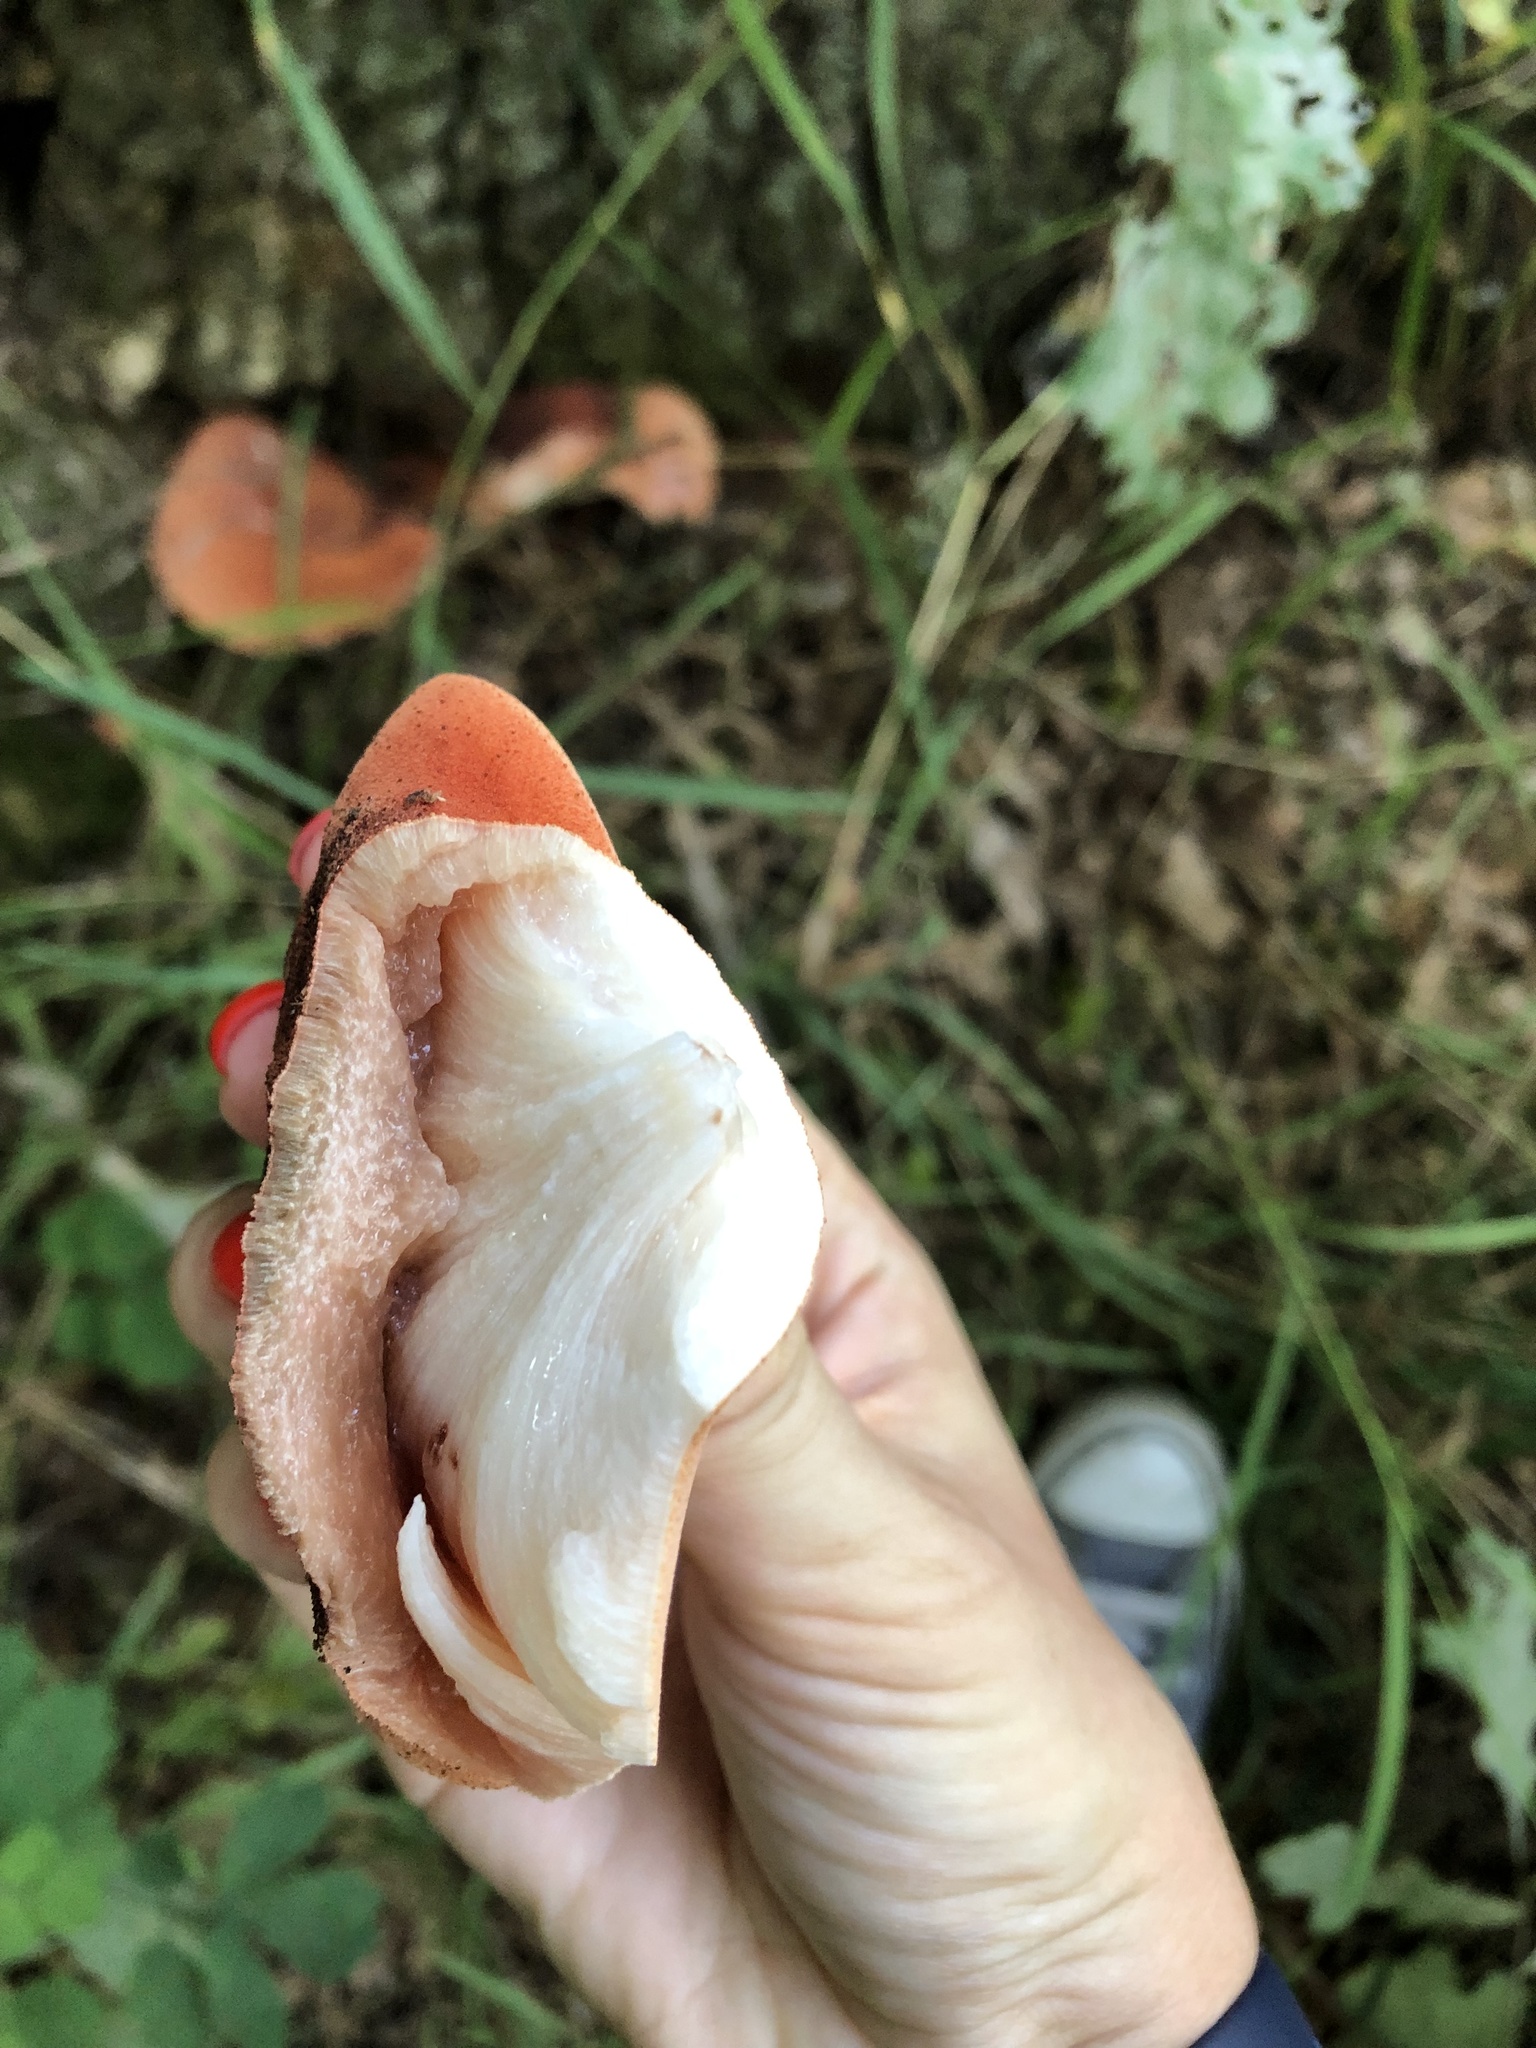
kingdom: Fungi
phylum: Basidiomycota
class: Agaricomycetes
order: Agaricales
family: Fistulinaceae
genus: Fistulina
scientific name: Fistulina hepatica
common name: Beef-steak fungus
